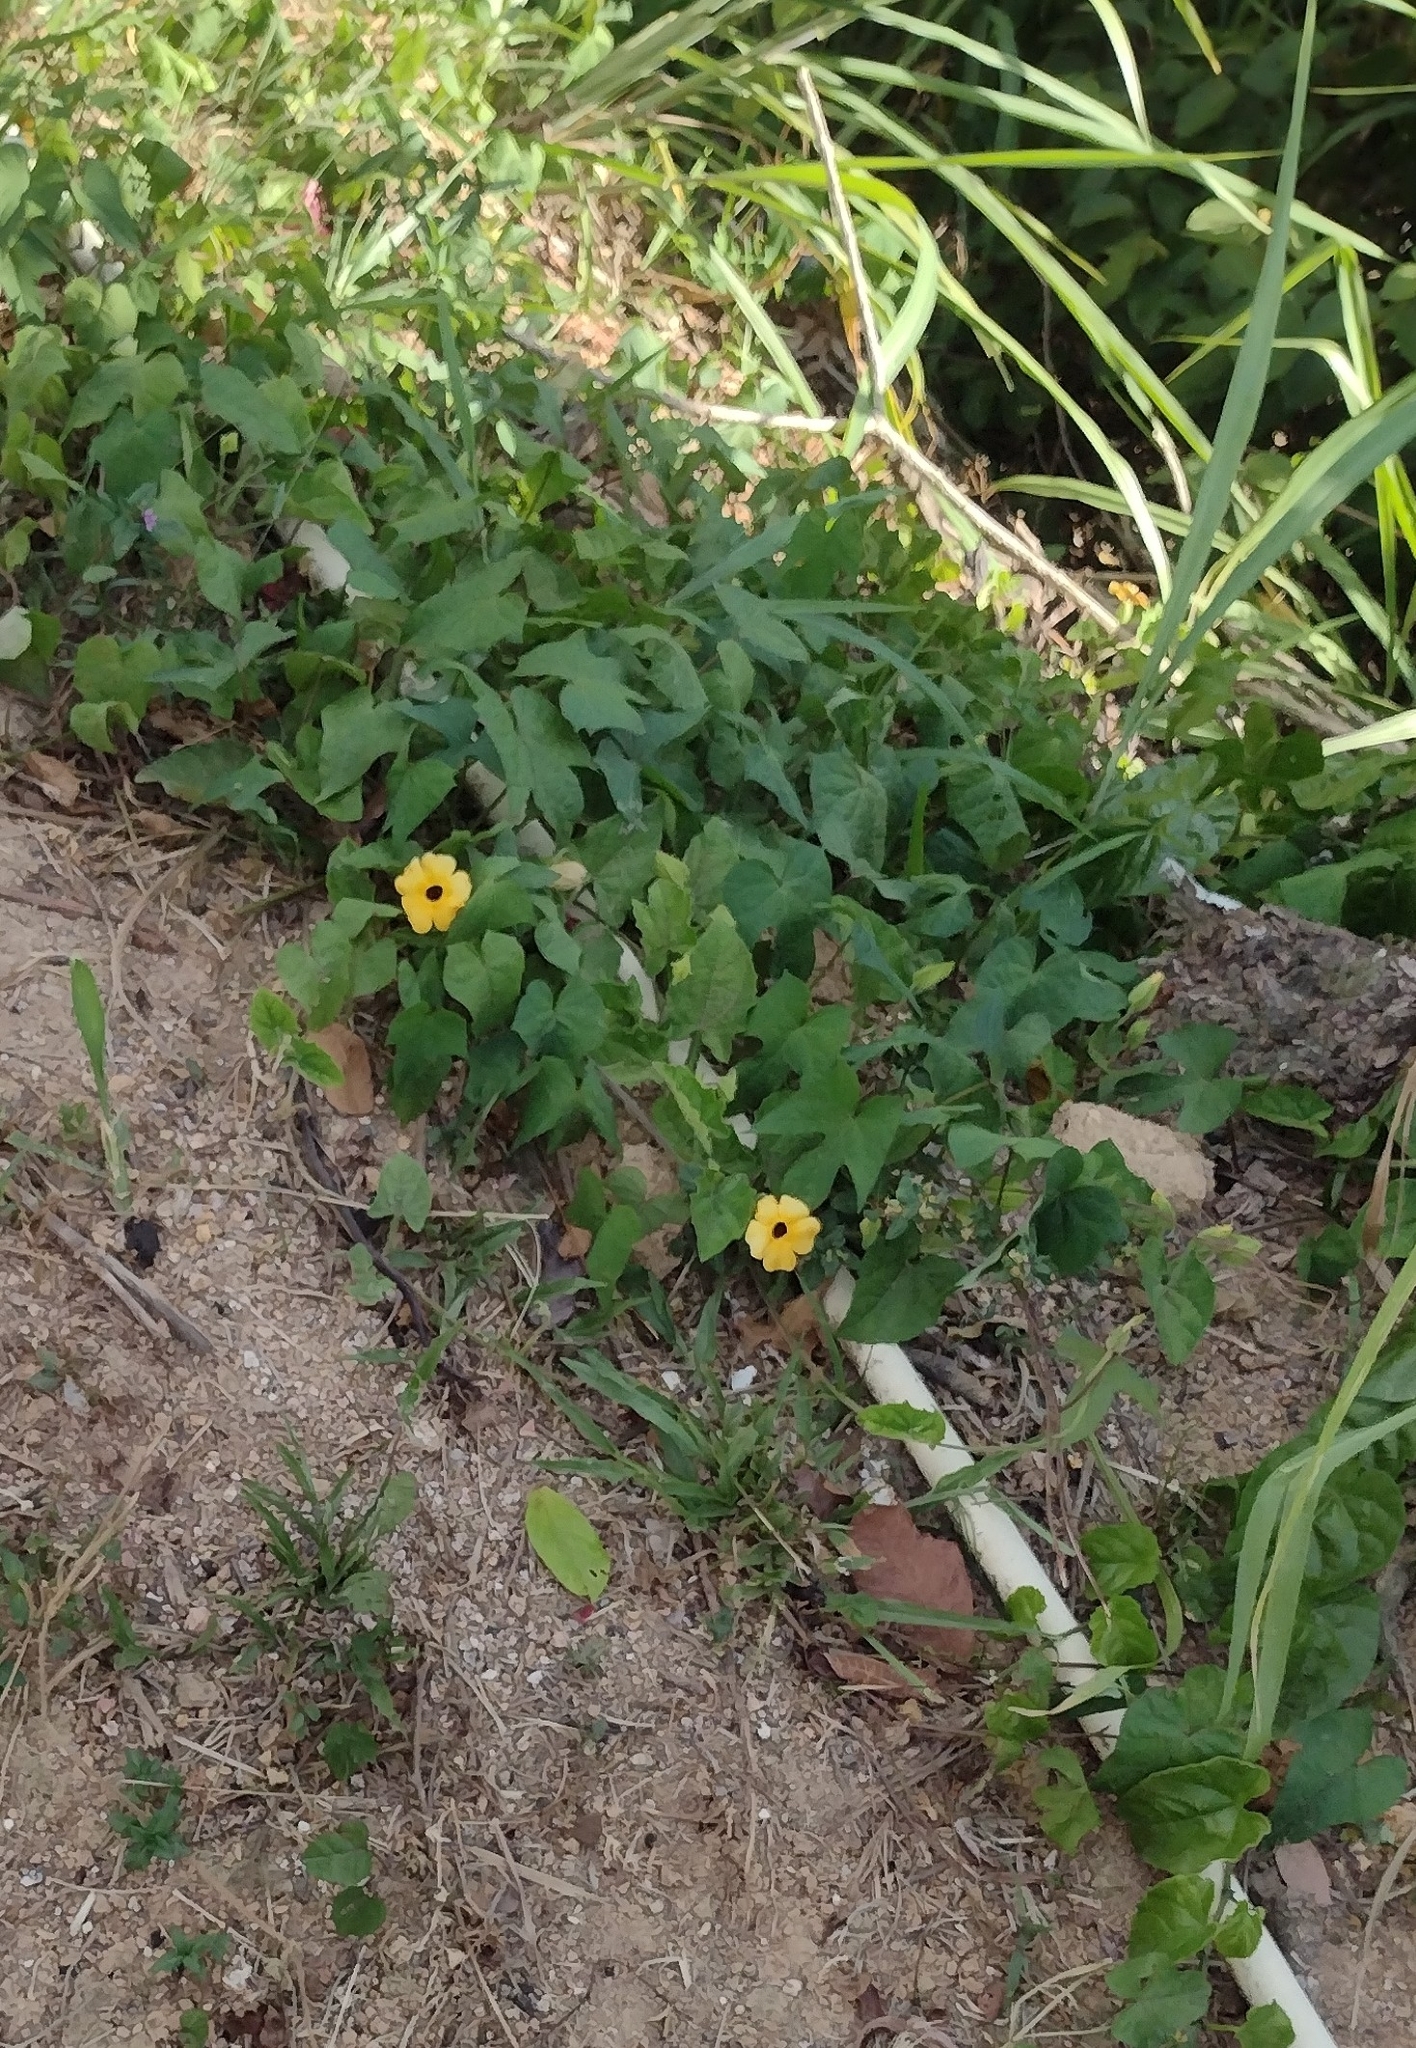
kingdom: Plantae
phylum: Tracheophyta
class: Magnoliopsida
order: Lamiales
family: Acanthaceae
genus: Thunbergia
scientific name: Thunbergia alata
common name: Blackeyed susan vine
